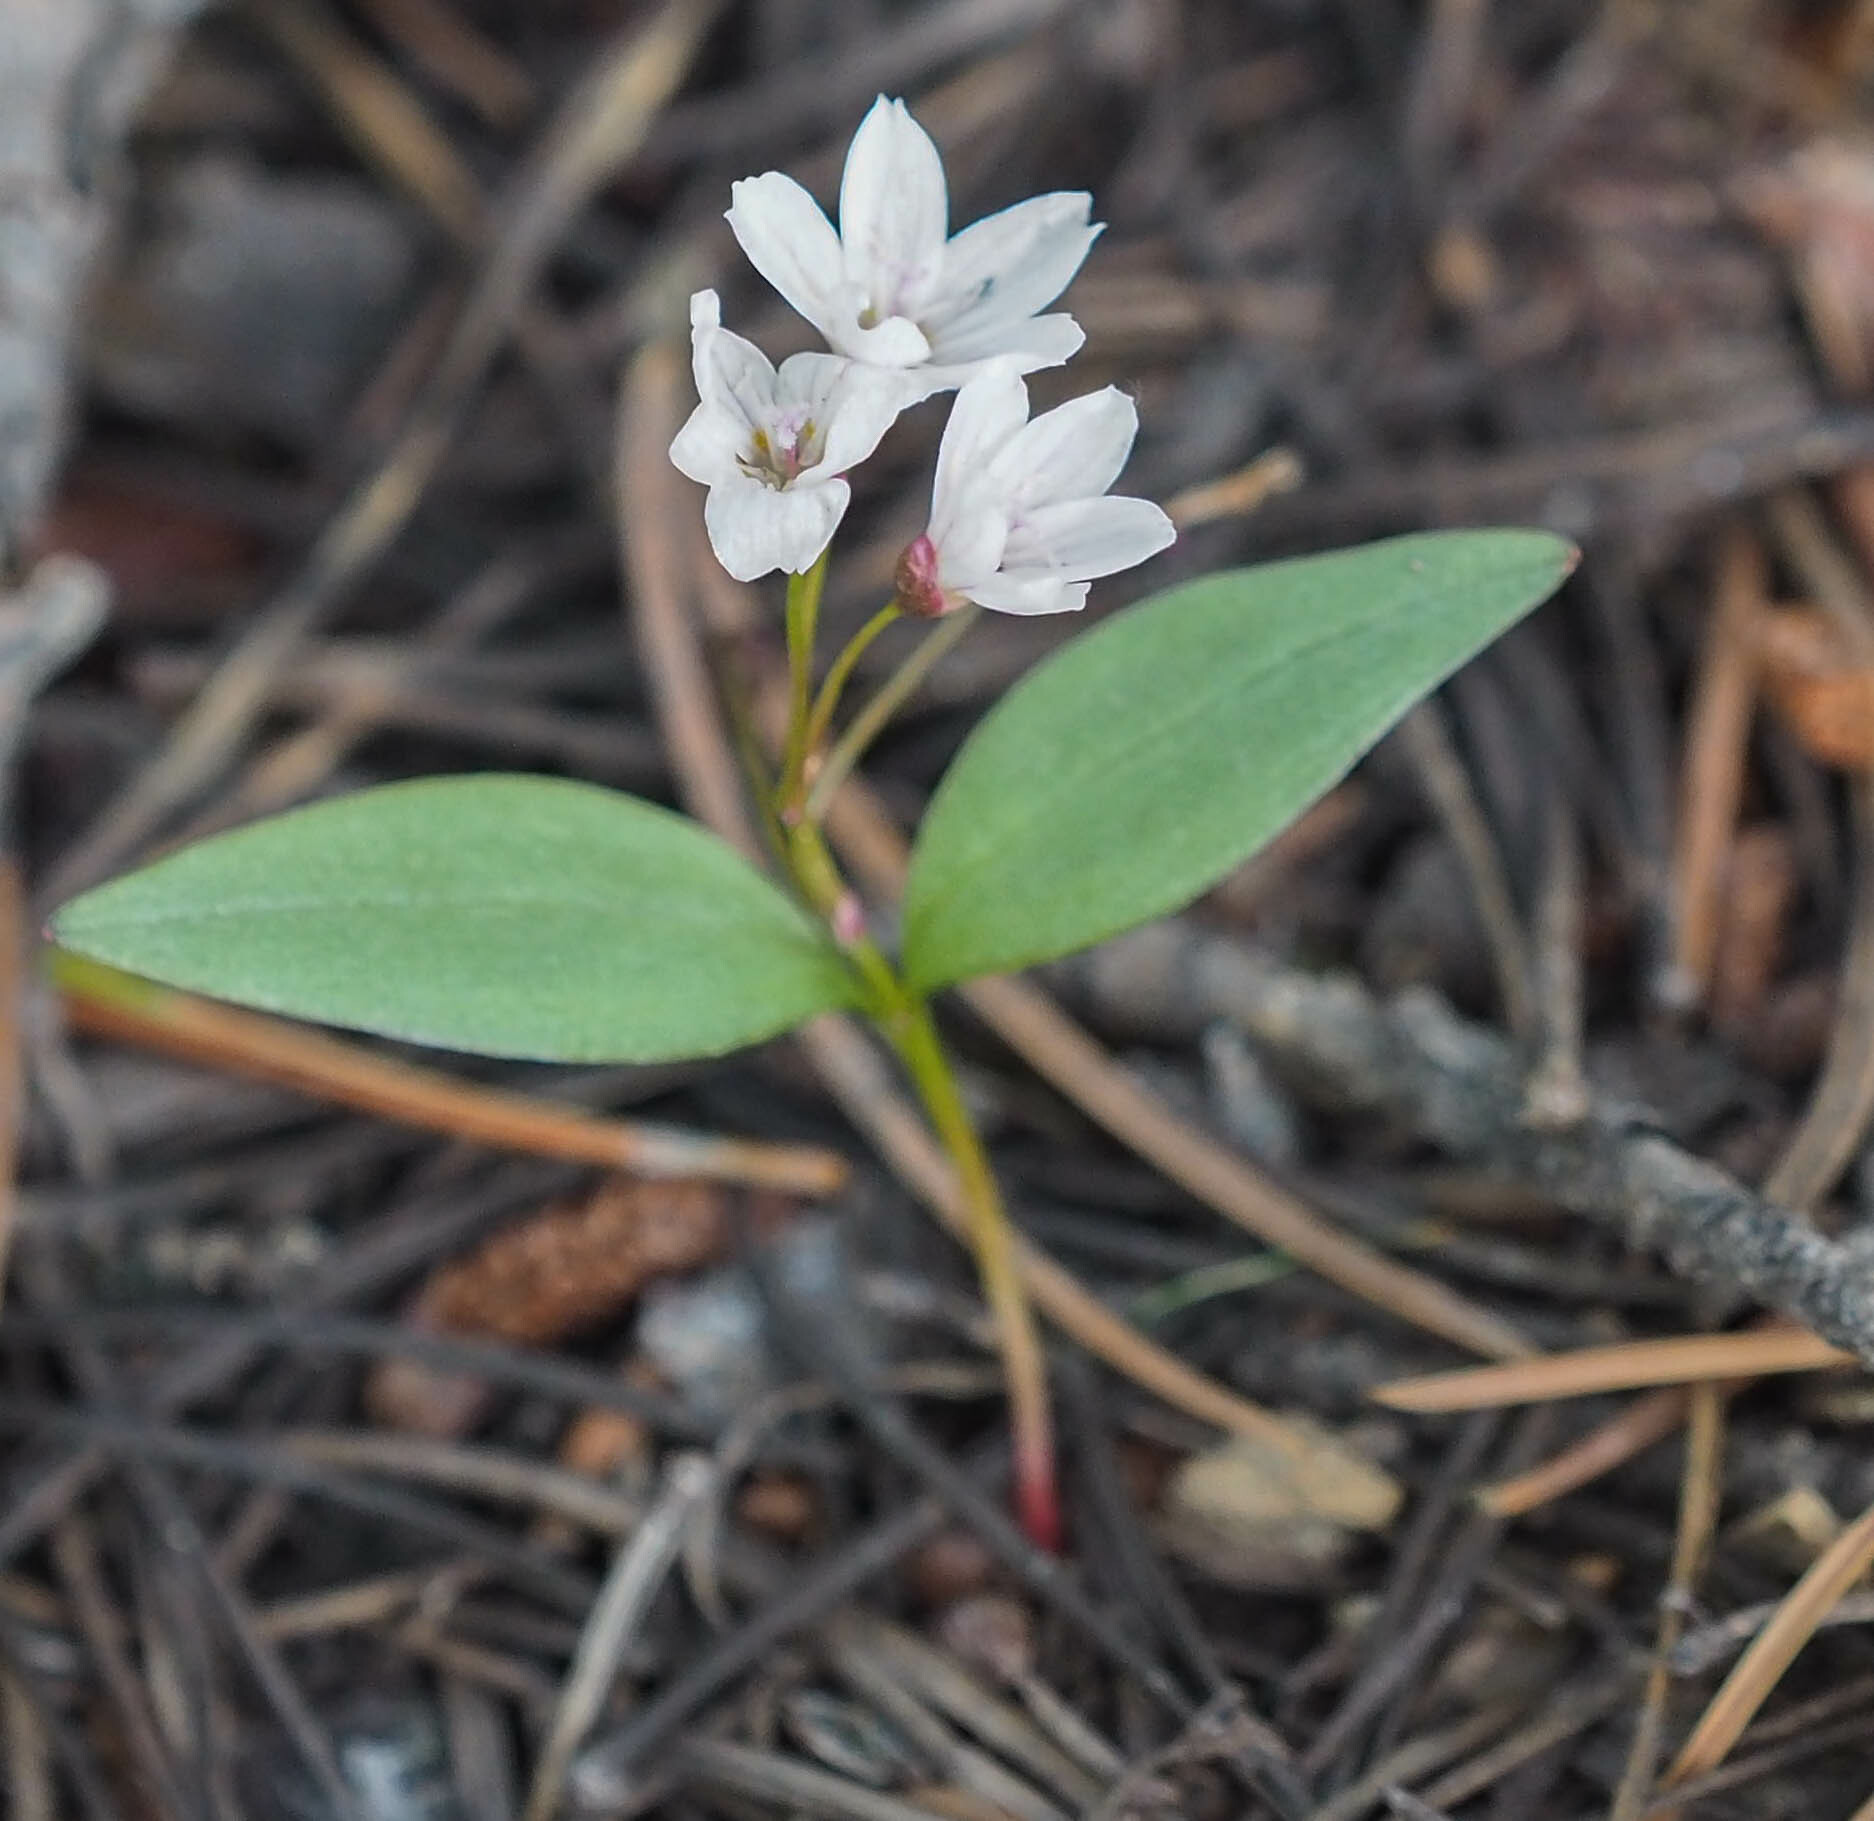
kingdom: Plantae
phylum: Tracheophyta
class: Magnoliopsida
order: Caryophyllales
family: Montiaceae
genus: Claytonia
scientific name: Claytonia lanceolata
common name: Western spring-beauty
